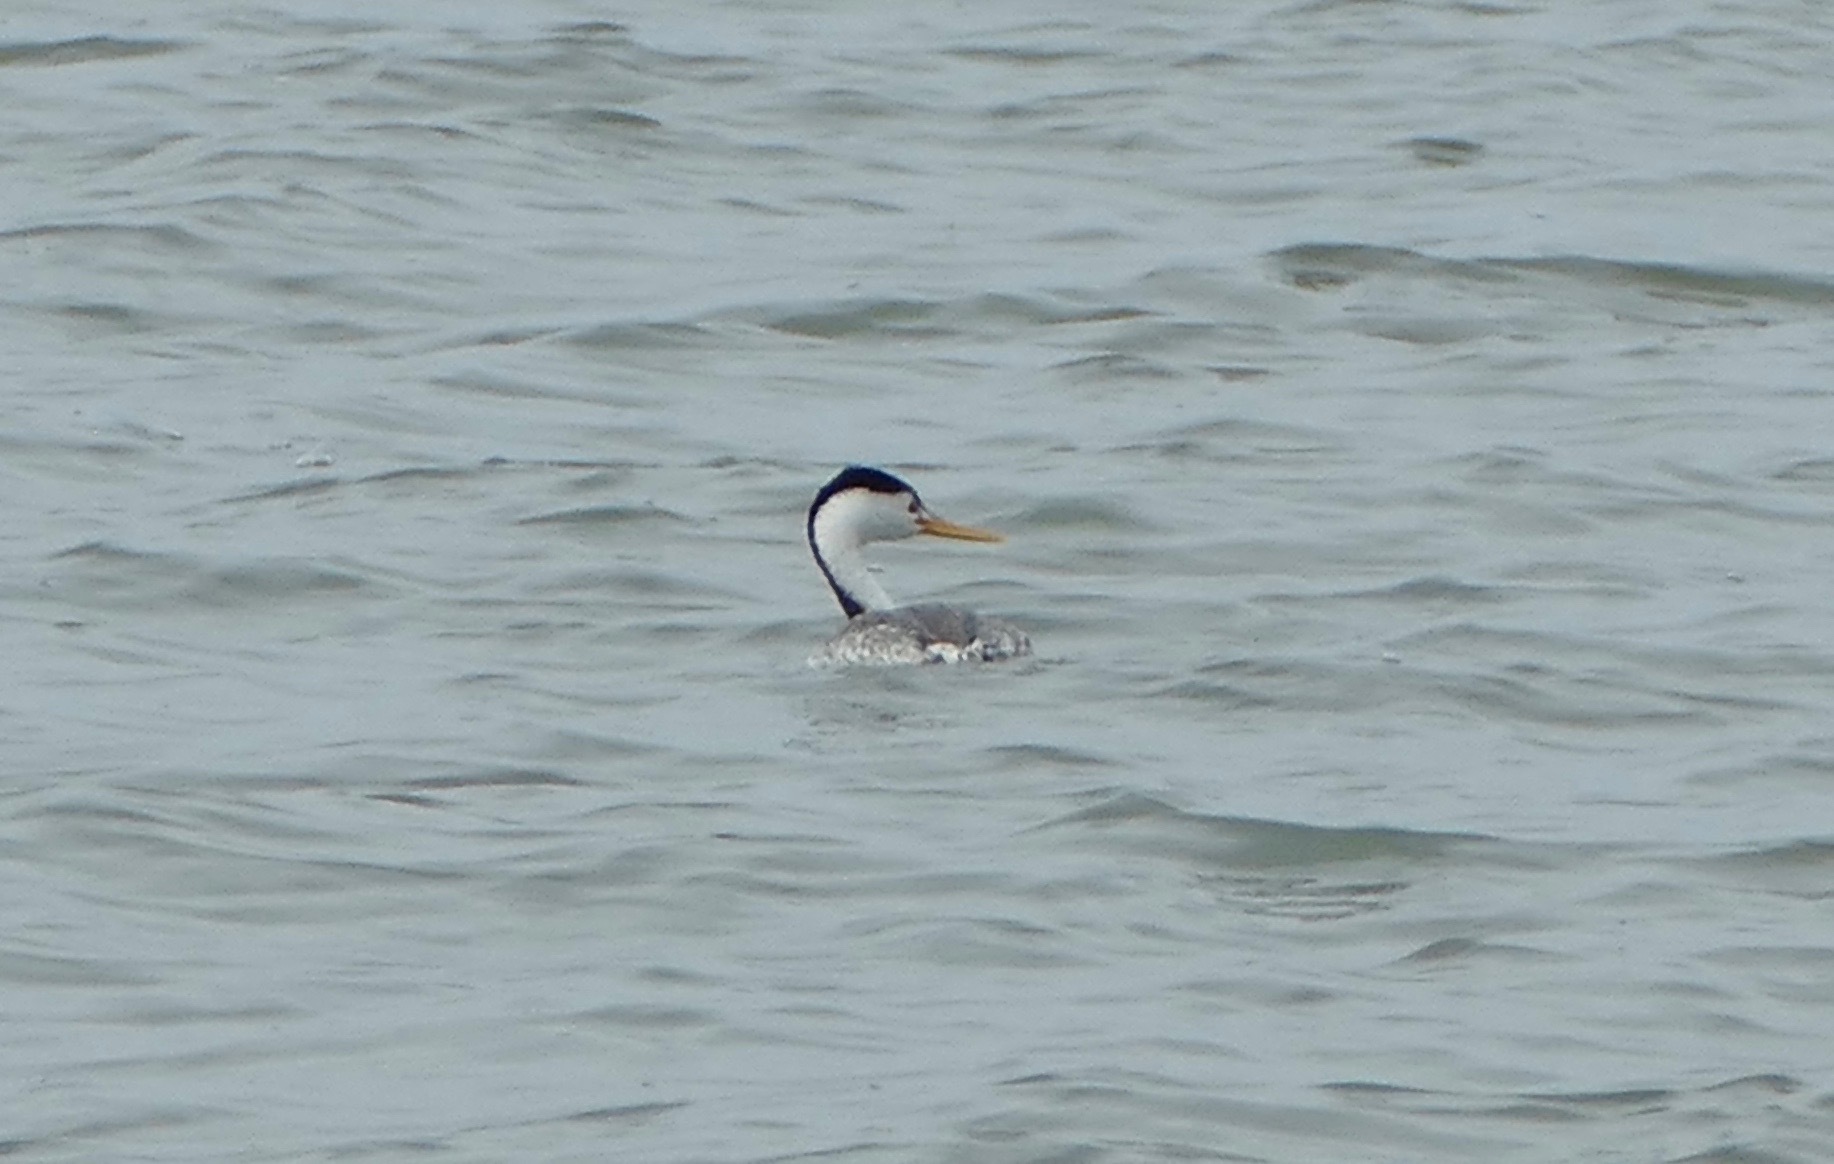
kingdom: Animalia
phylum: Chordata
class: Aves
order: Podicipediformes
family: Podicipedidae
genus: Aechmophorus
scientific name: Aechmophorus clarkii
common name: Clark's grebe
